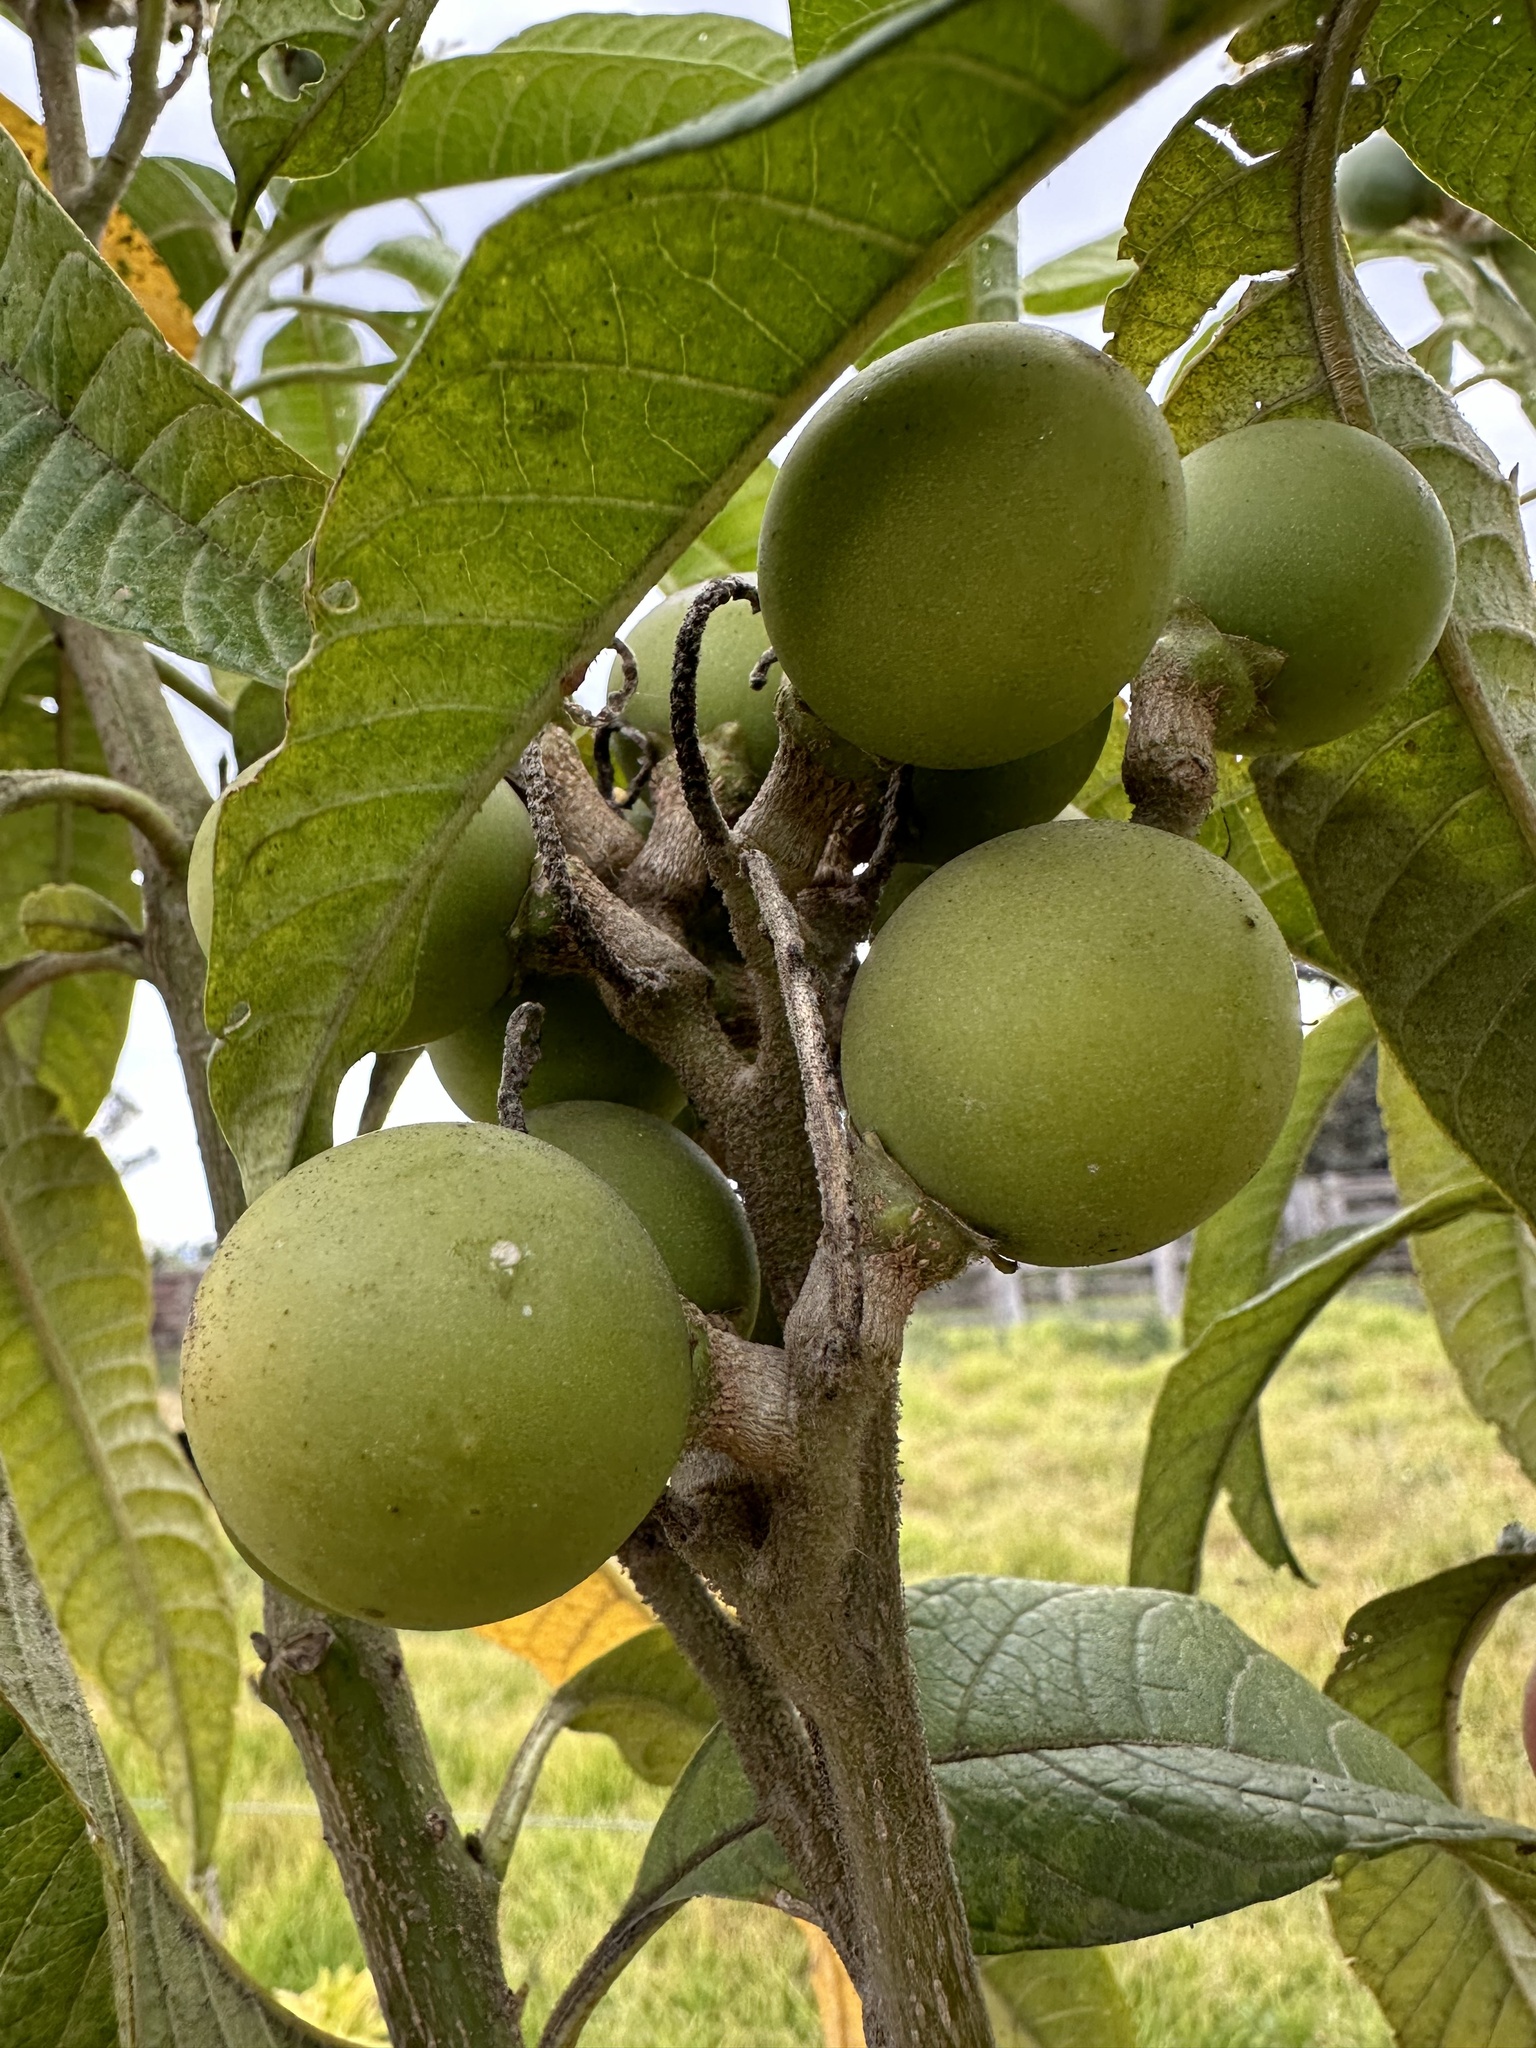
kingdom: Plantae
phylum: Tracheophyta
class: Magnoliopsida
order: Solanales
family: Solanaceae
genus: Solanum
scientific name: Solanum oblongifolium
